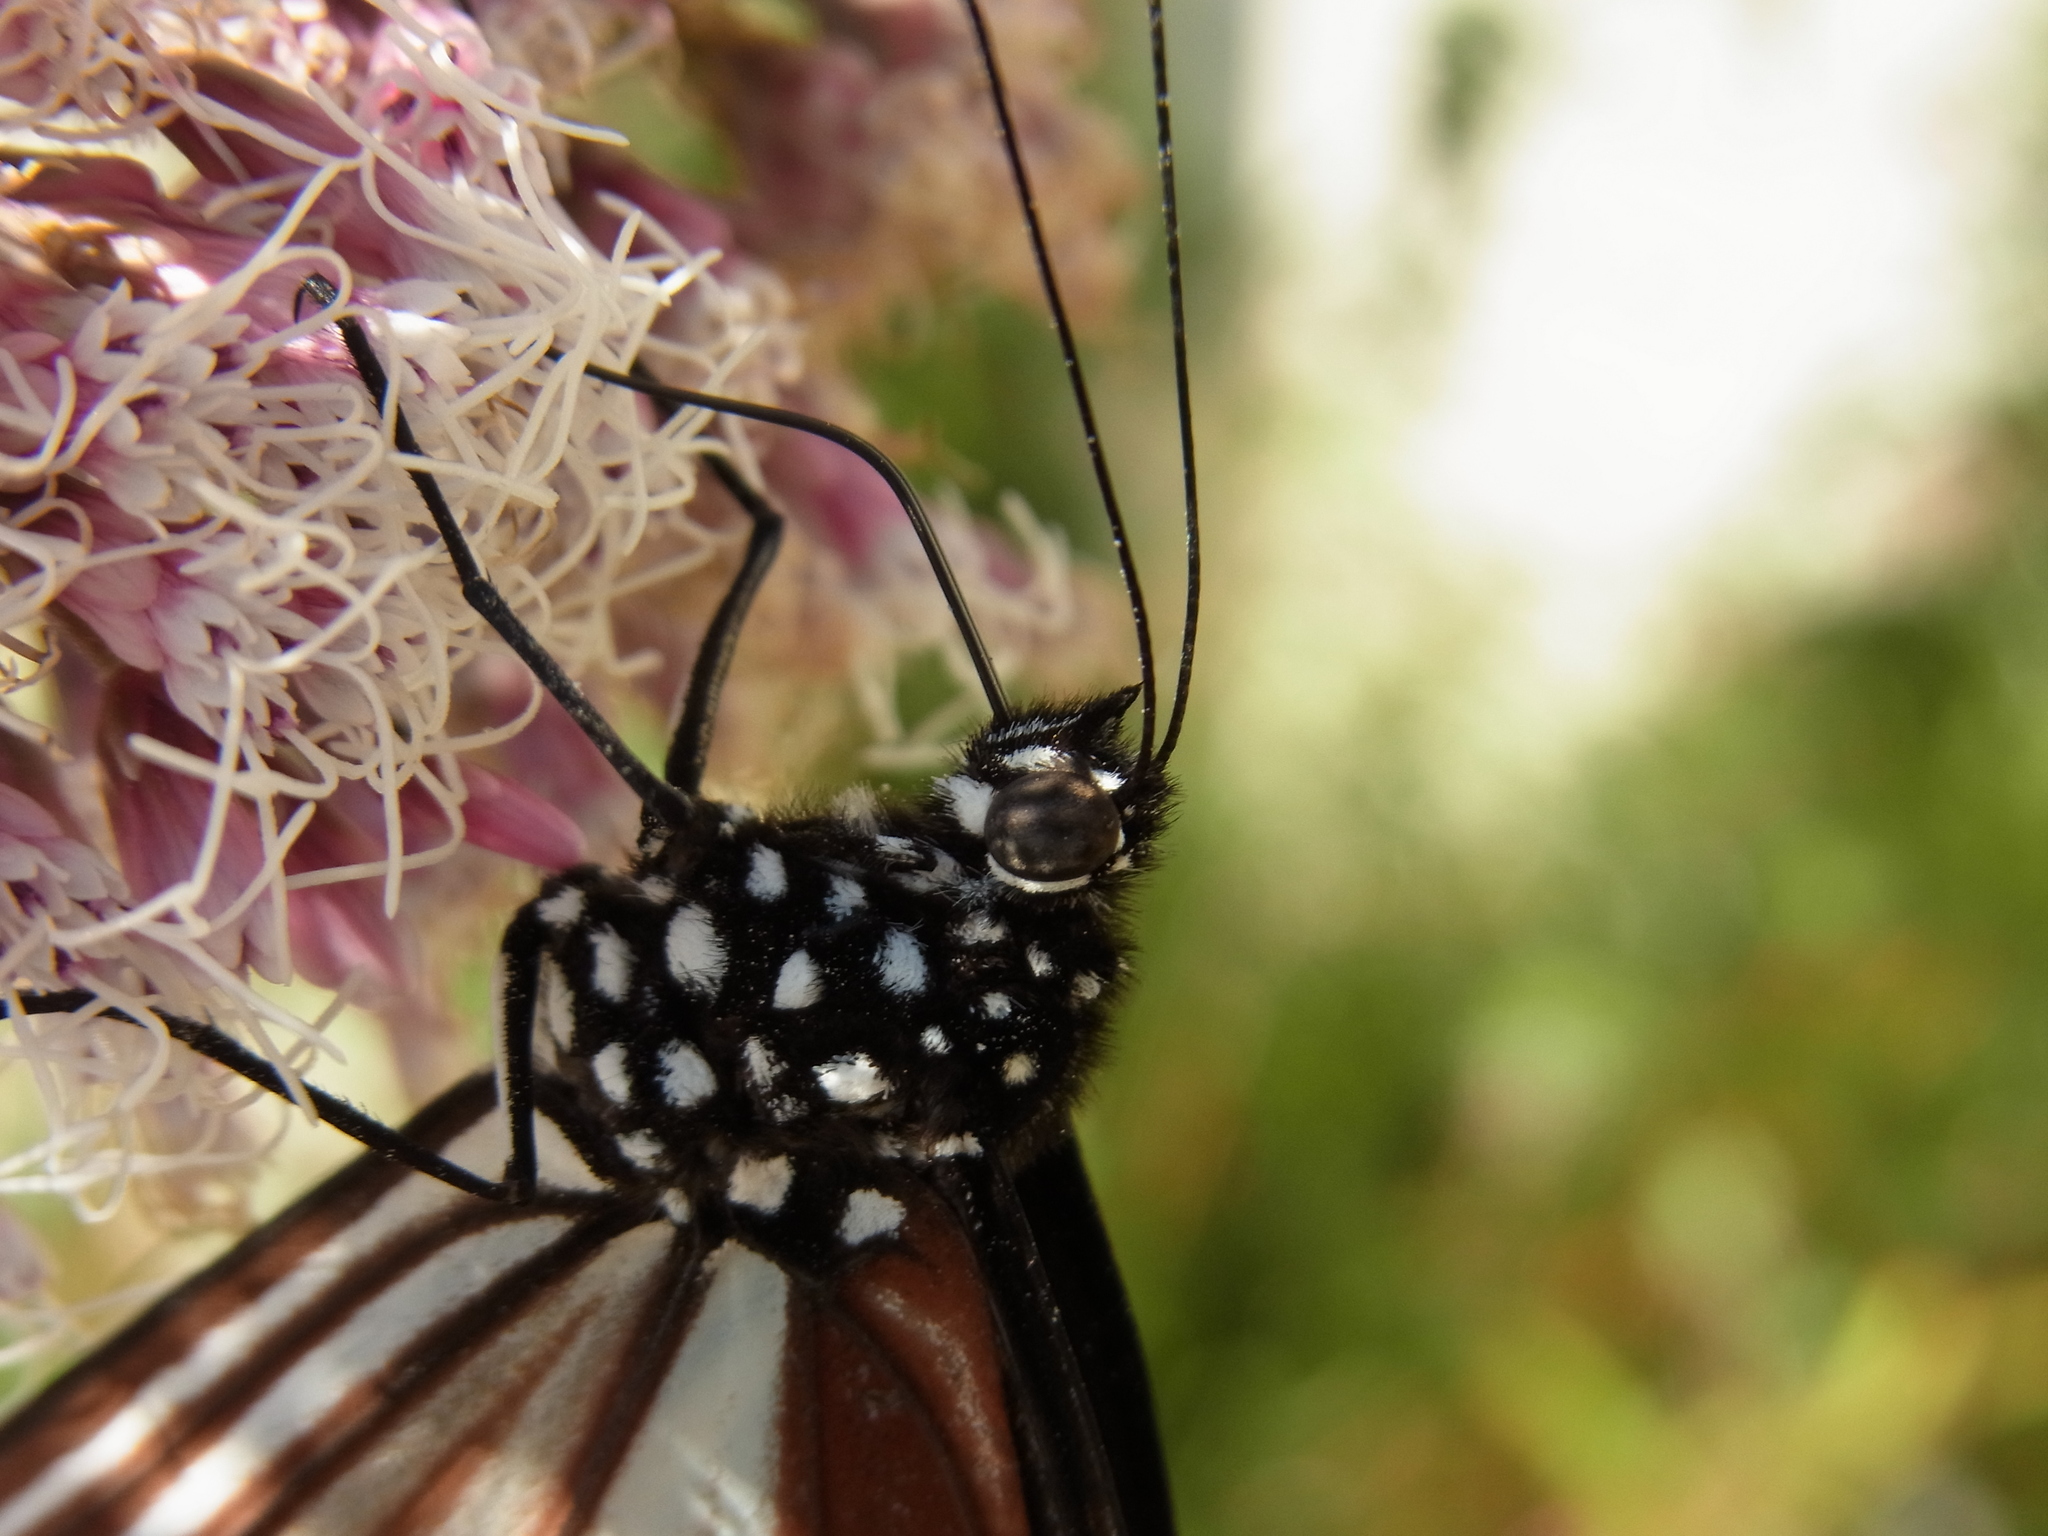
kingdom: Animalia
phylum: Arthropoda
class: Insecta
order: Lepidoptera
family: Nymphalidae
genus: Parantica
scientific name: Parantica sita
